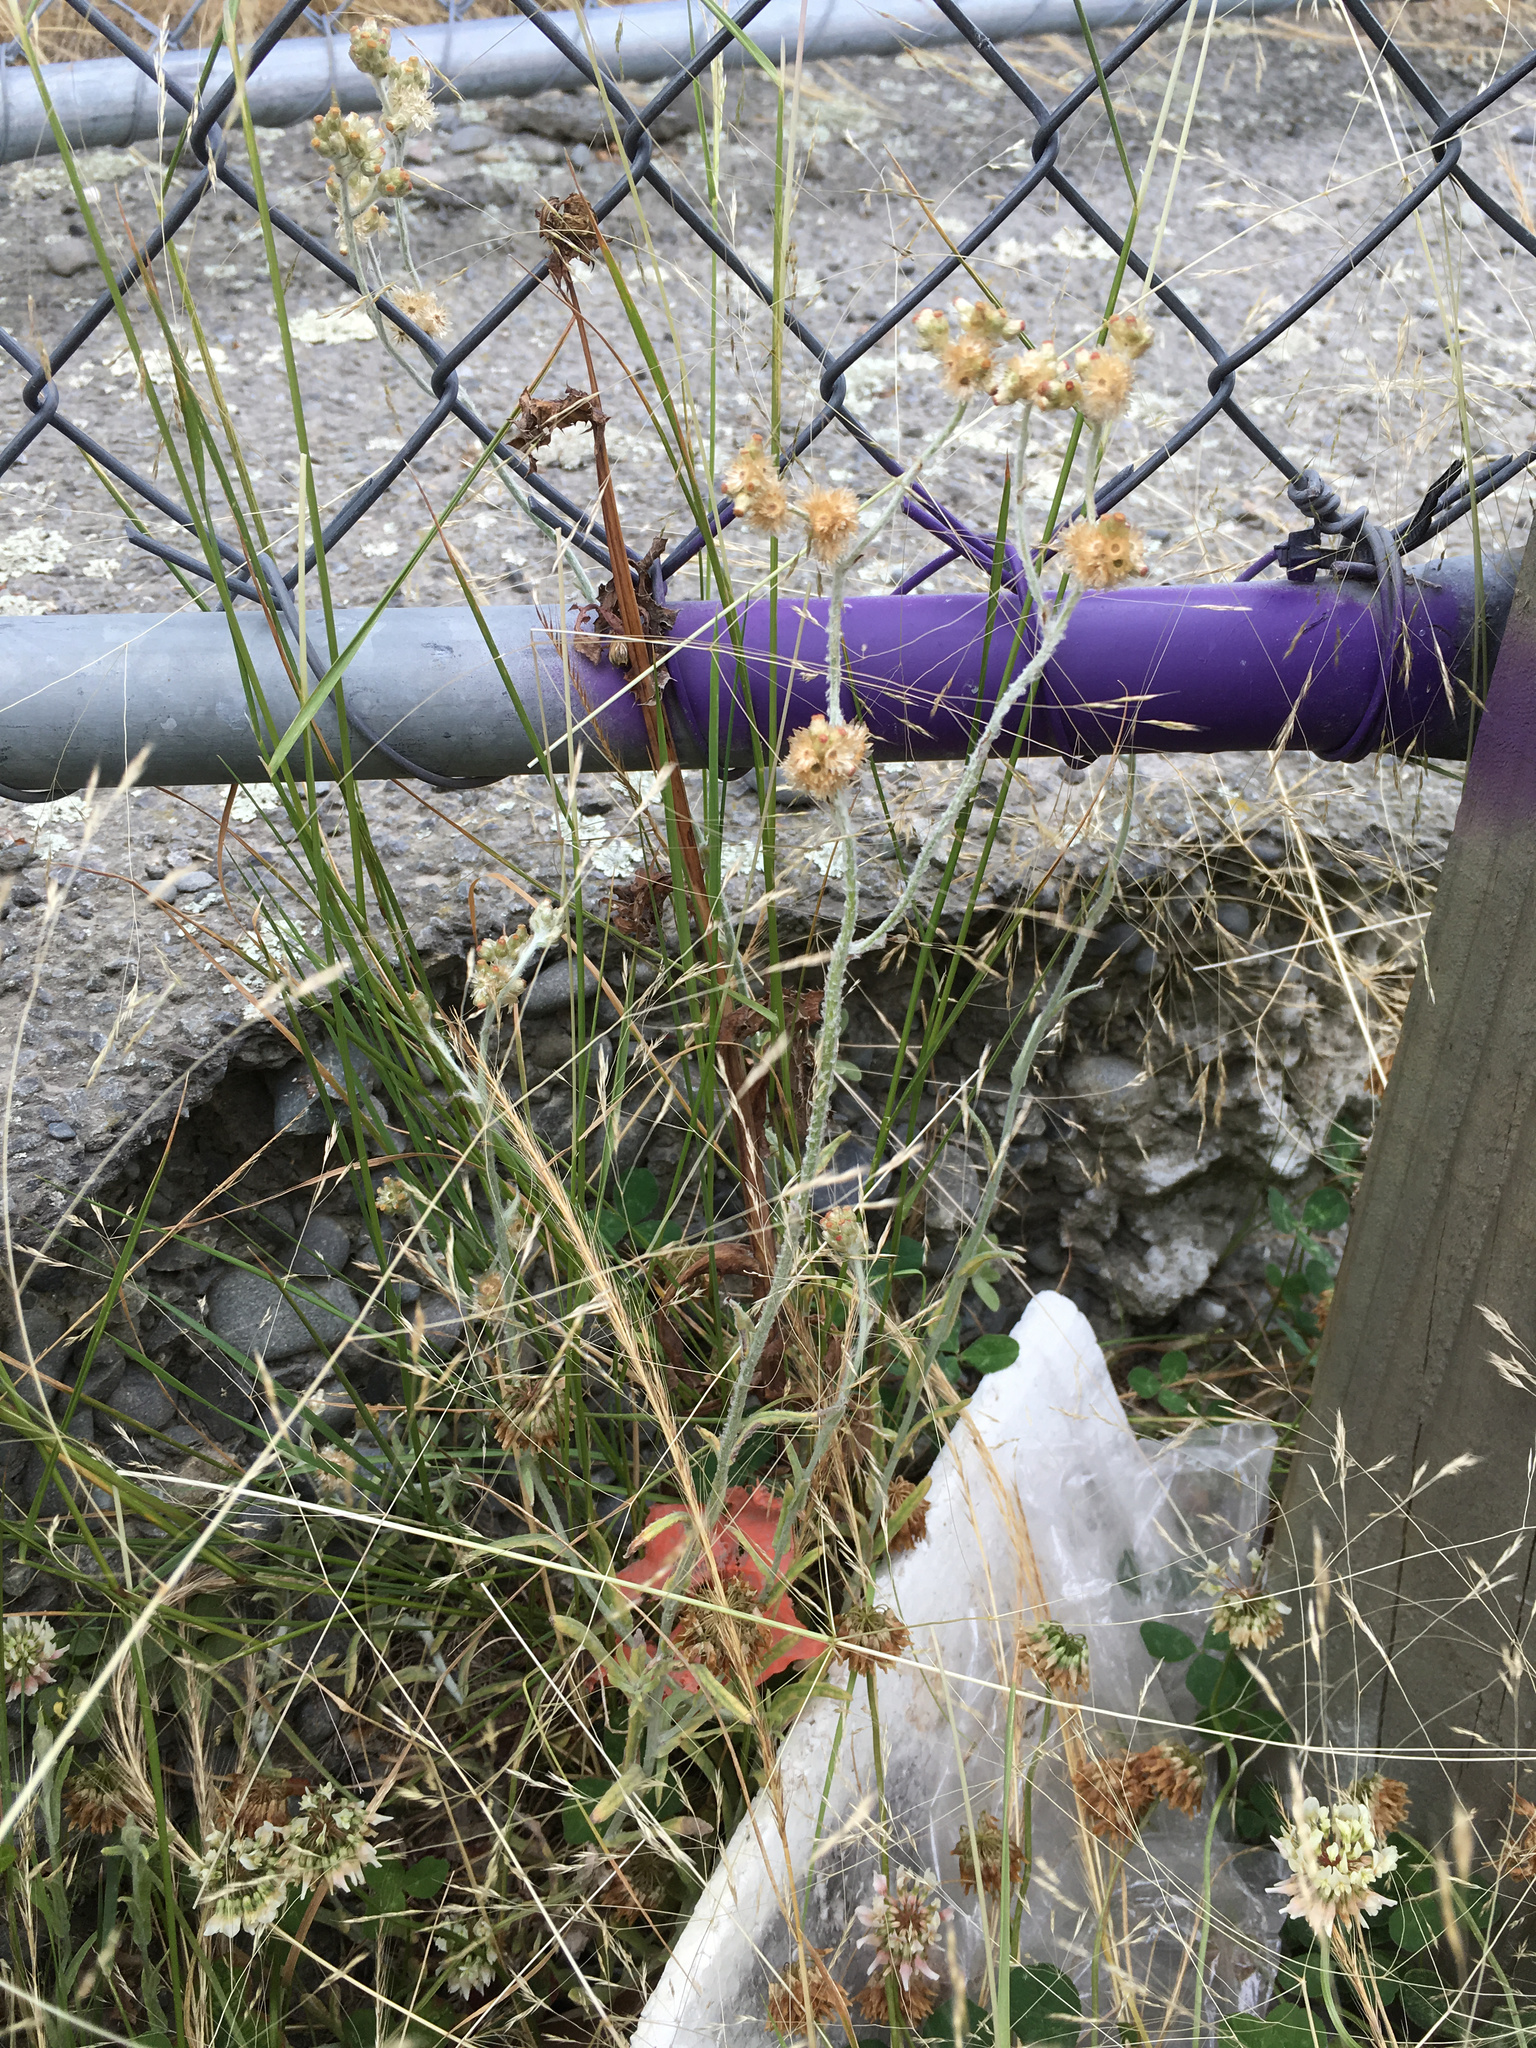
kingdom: Plantae
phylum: Tracheophyta
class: Magnoliopsida
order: Asterales
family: Asteraceae
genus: Helichrysum
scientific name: Helichrysum luteoalbum
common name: Daisy
